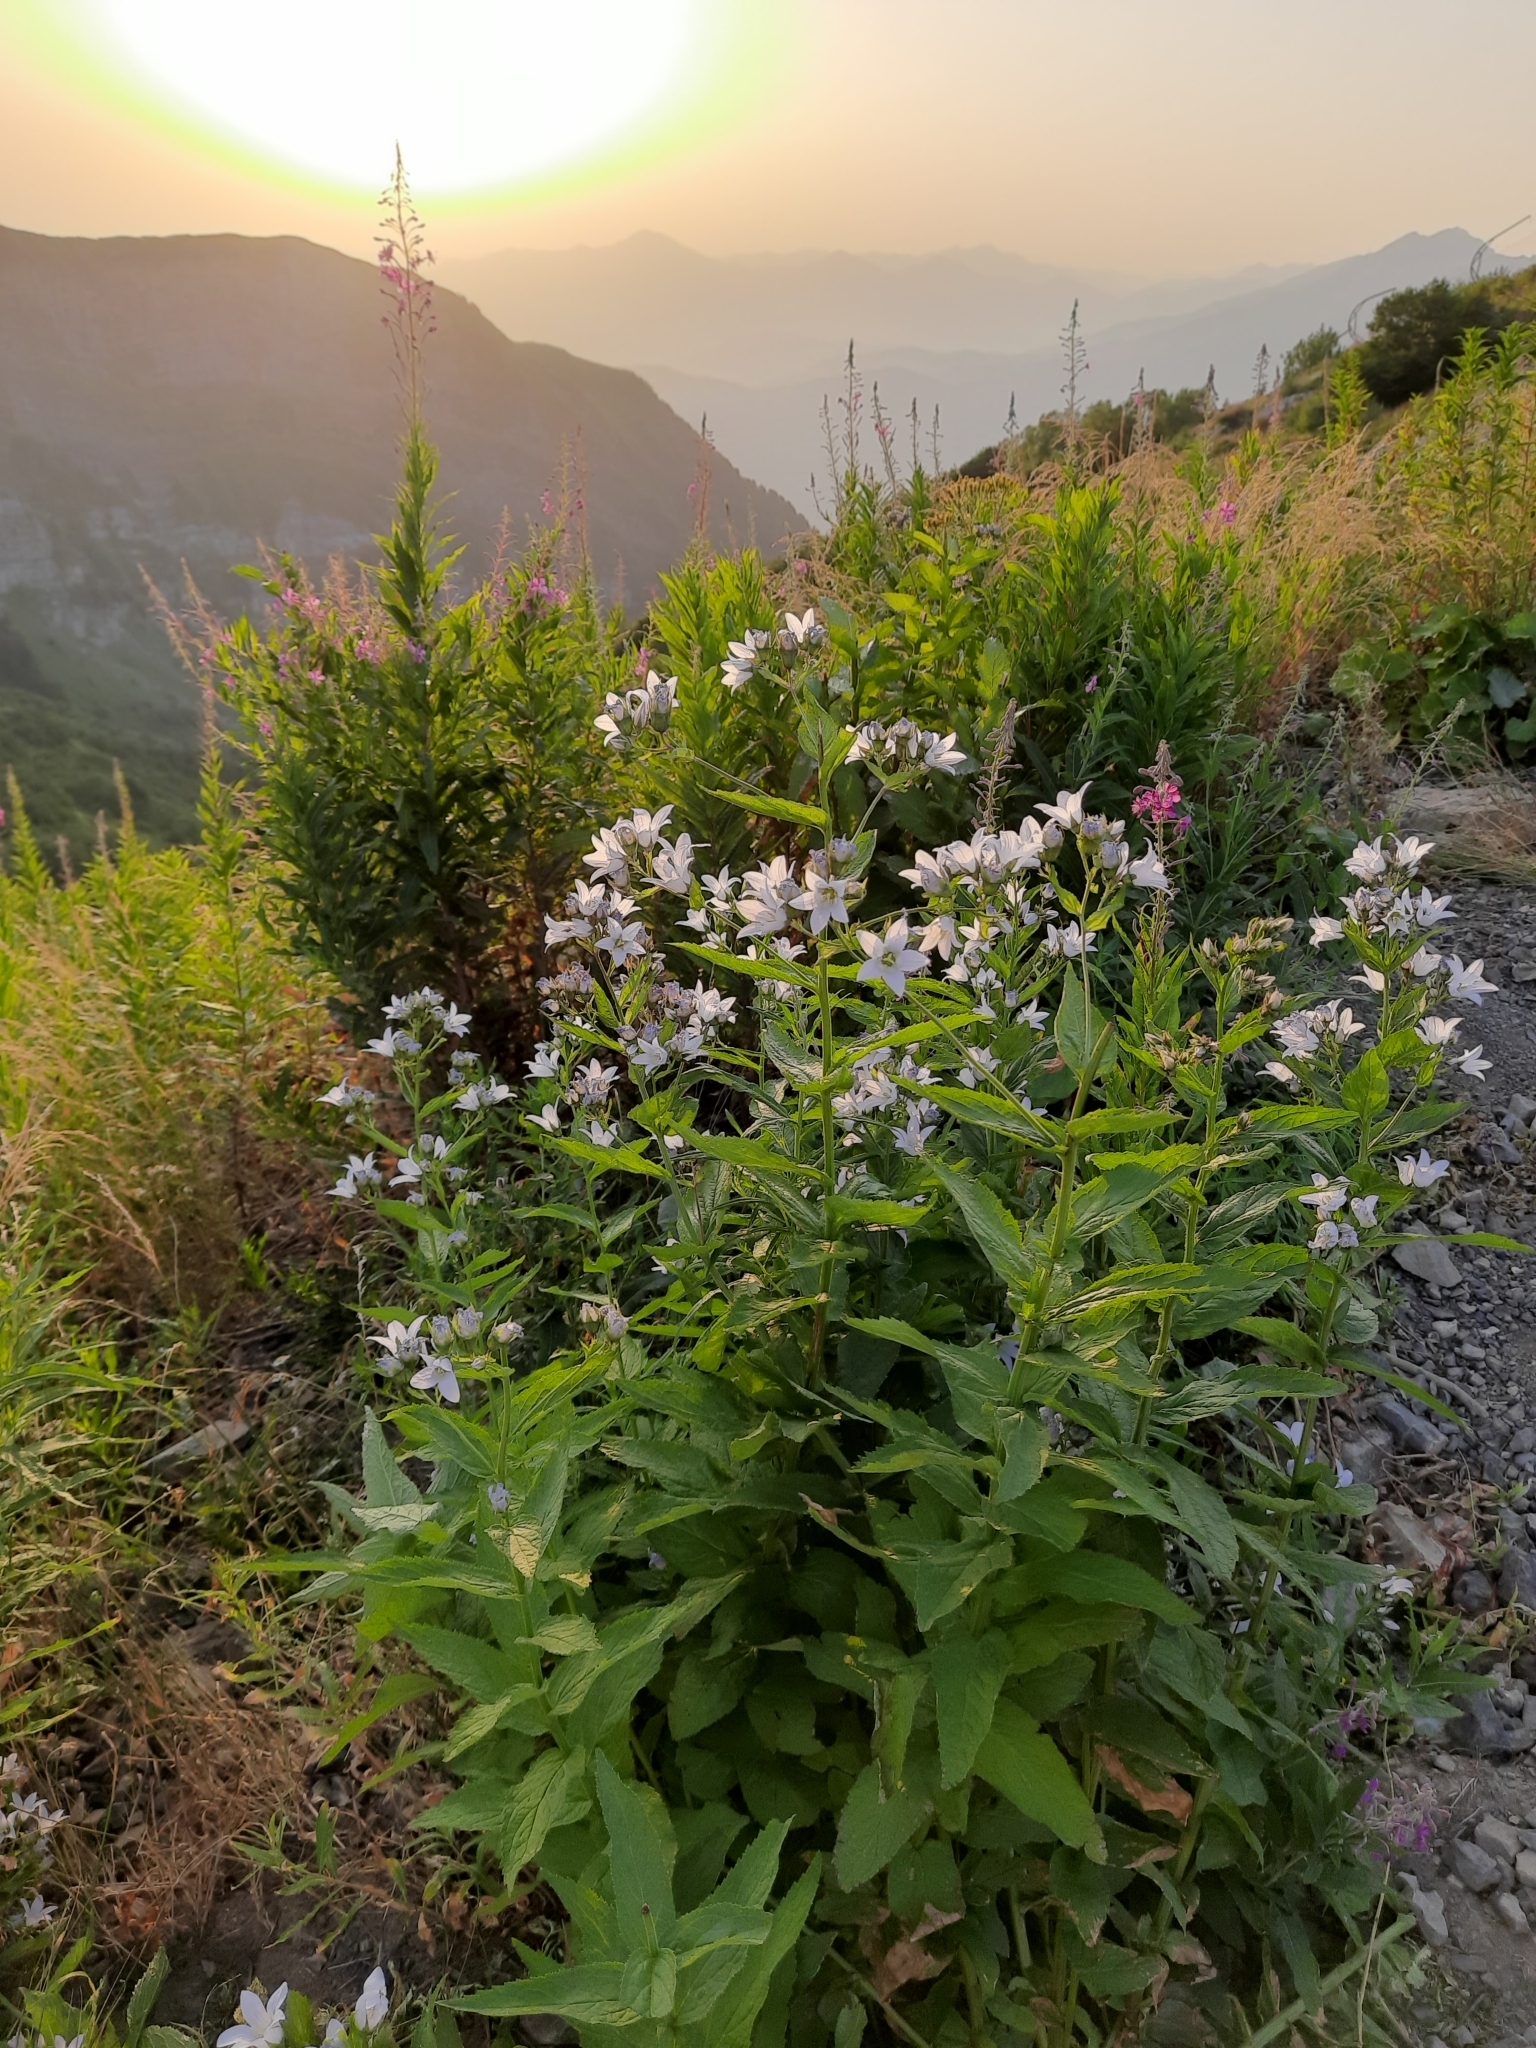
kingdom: Plantae
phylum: Tracheophyta
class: Magnoliopsida
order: Asterales
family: Campanulaceae
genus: Campanula
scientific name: Campanula lactiflora
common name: Milky bellflower
